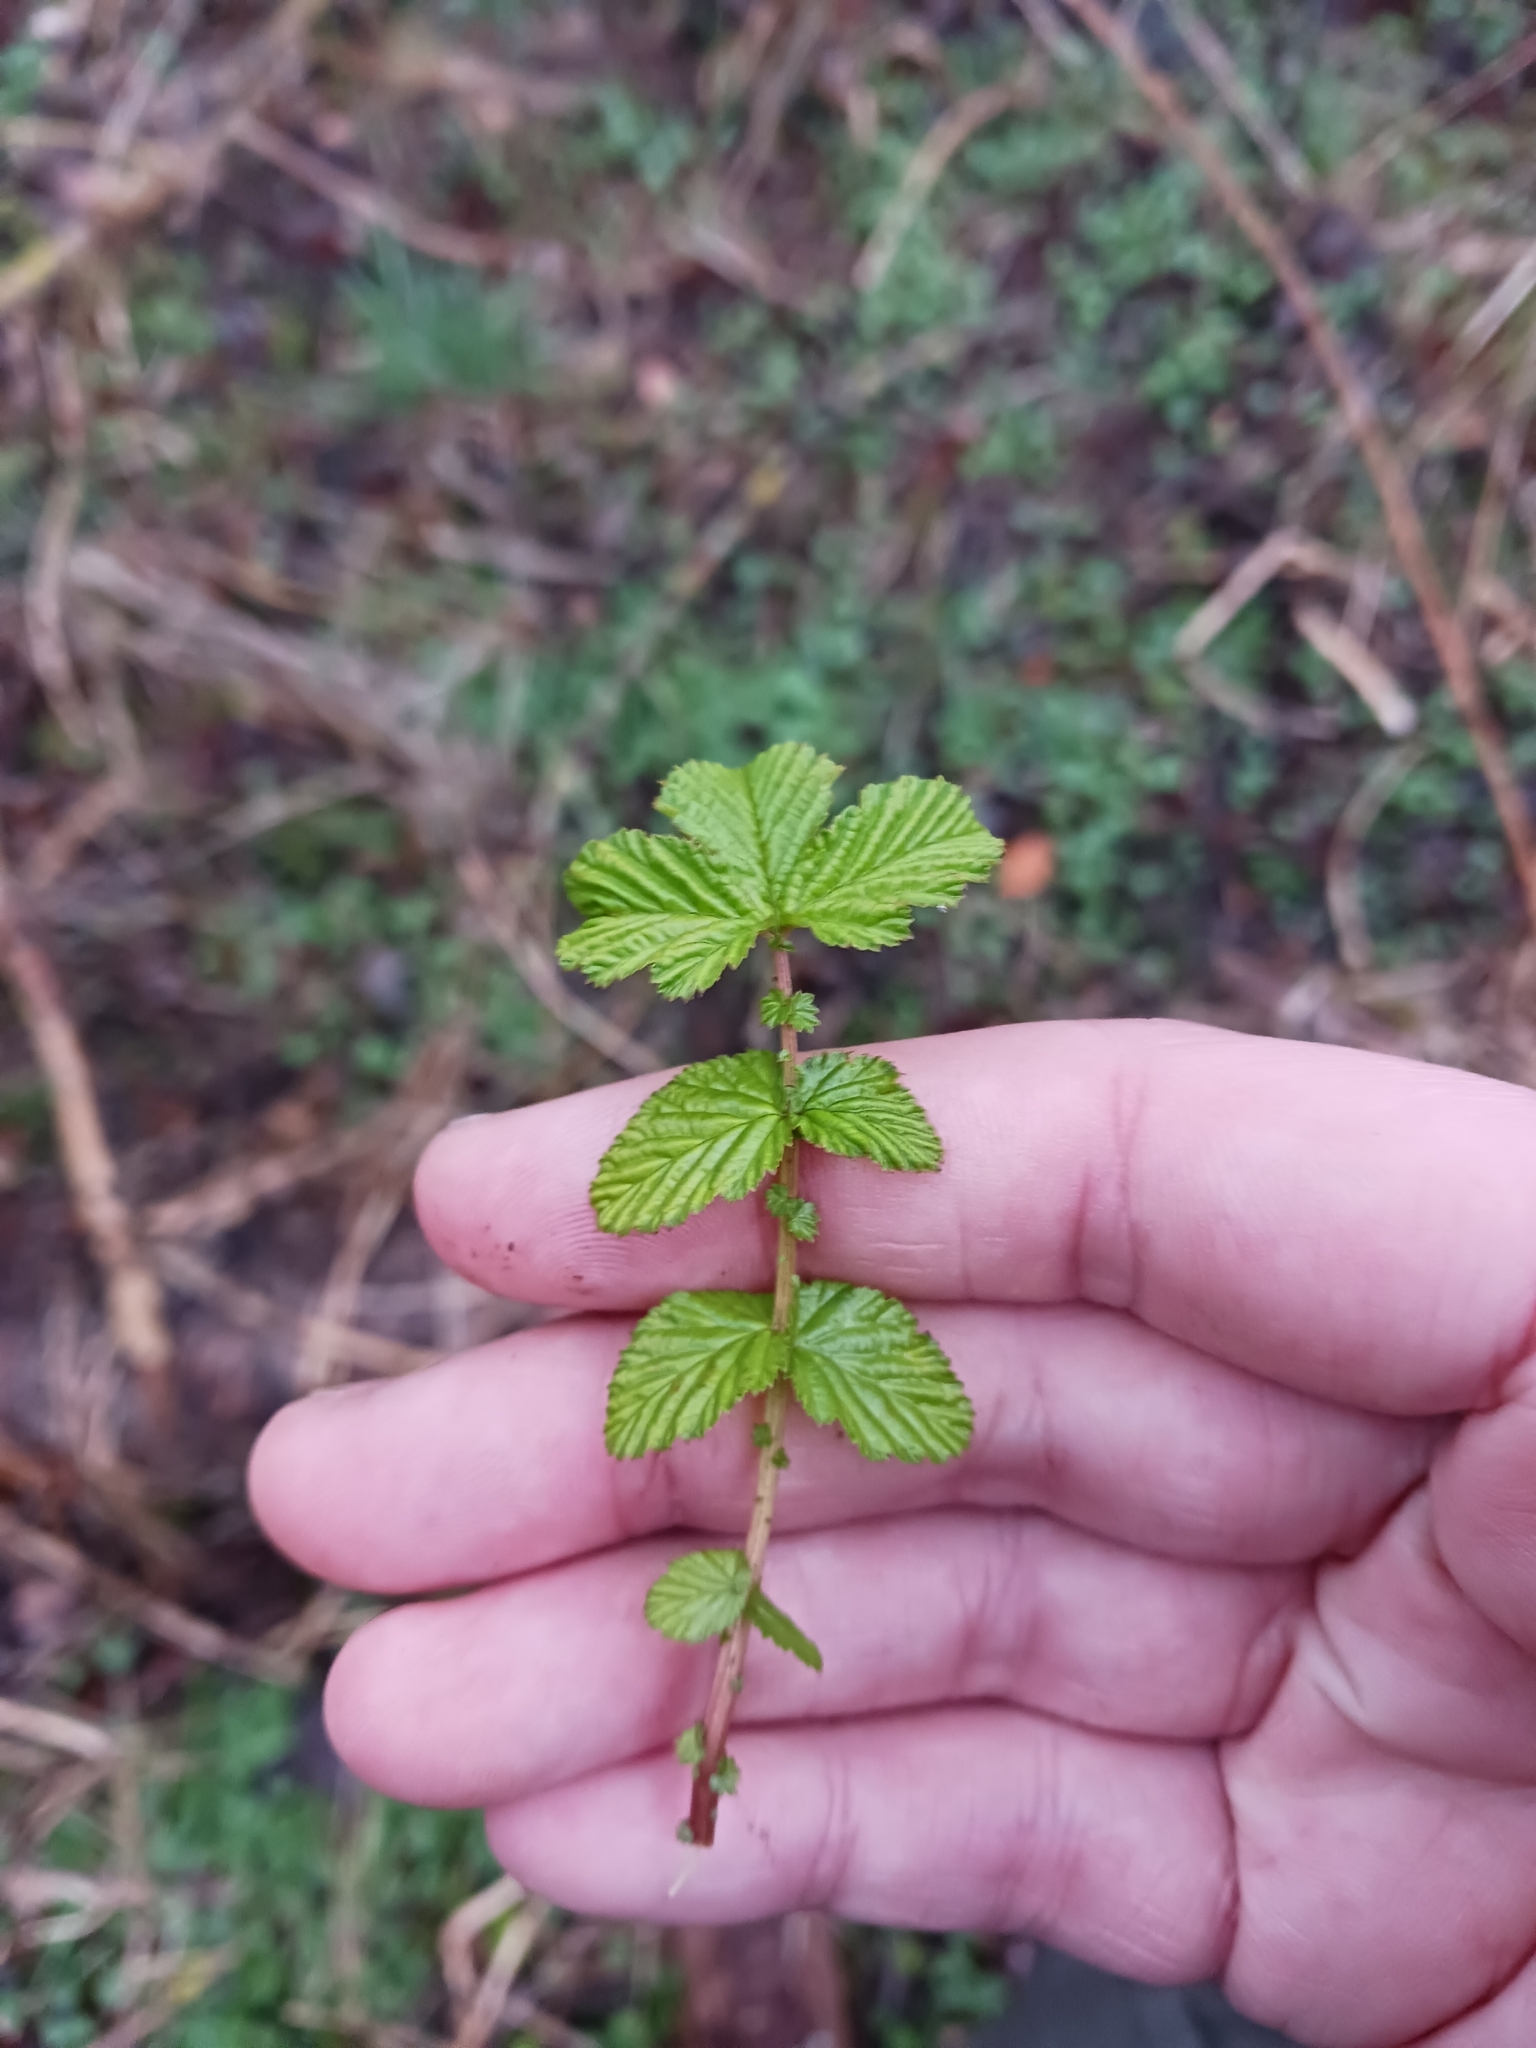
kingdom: Plantae
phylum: Tracheophyta
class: Magnoliopsida
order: Rosales
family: Rosaceae
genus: Filipendula
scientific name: Filipendula ulmaria
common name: Meadowsweet
